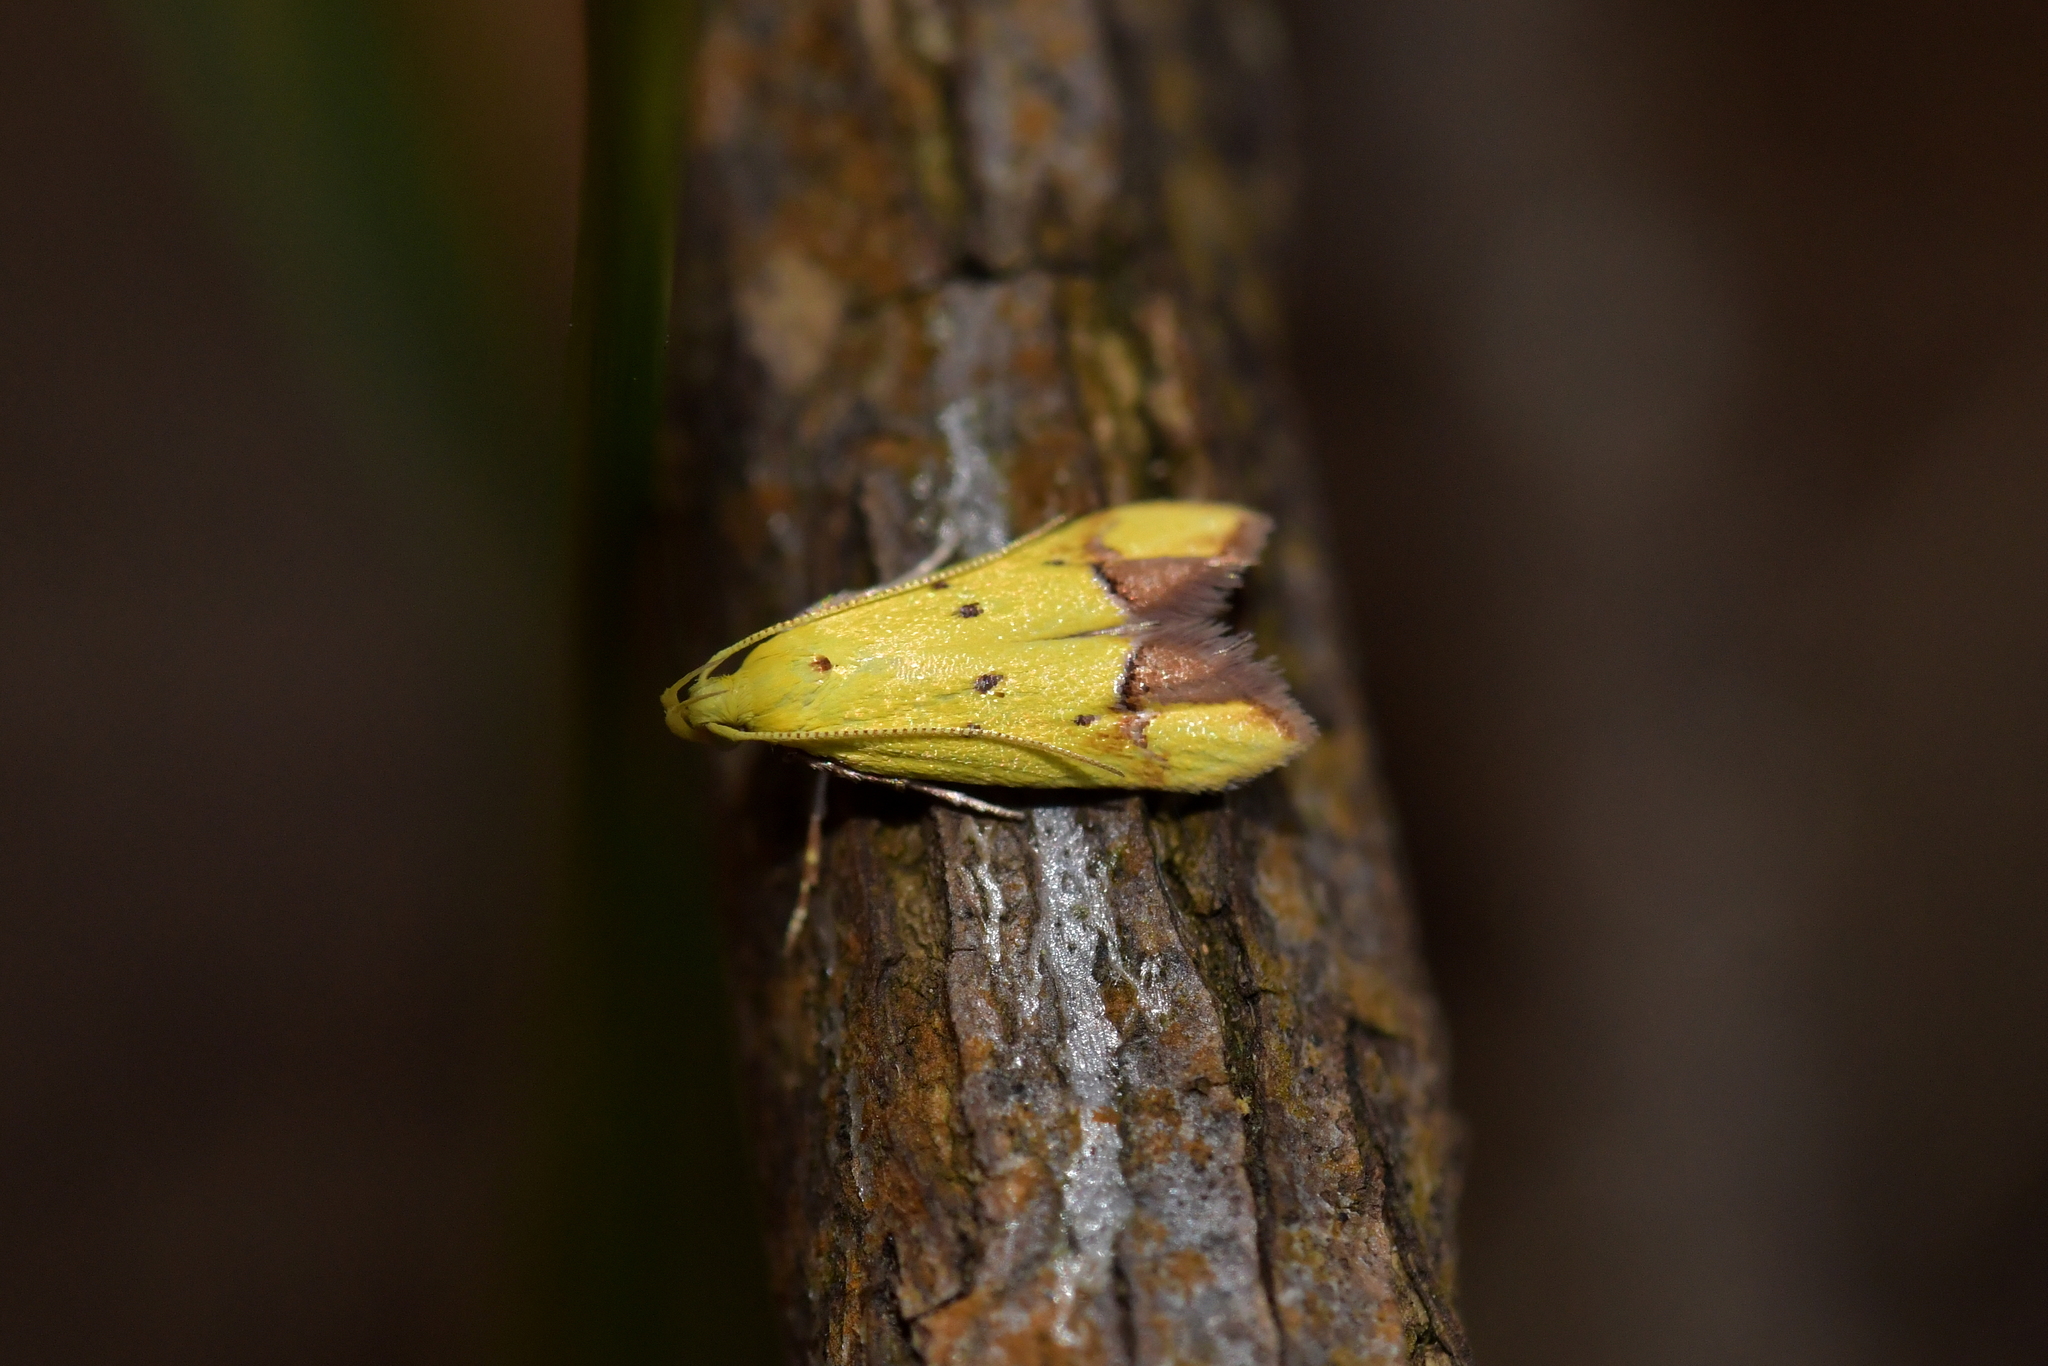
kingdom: Animalia
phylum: Arthropoda
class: Insecta
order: Lepidoptera
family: Oecophoridae
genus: Gymnobathra
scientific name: Gymnobathra flavidella
